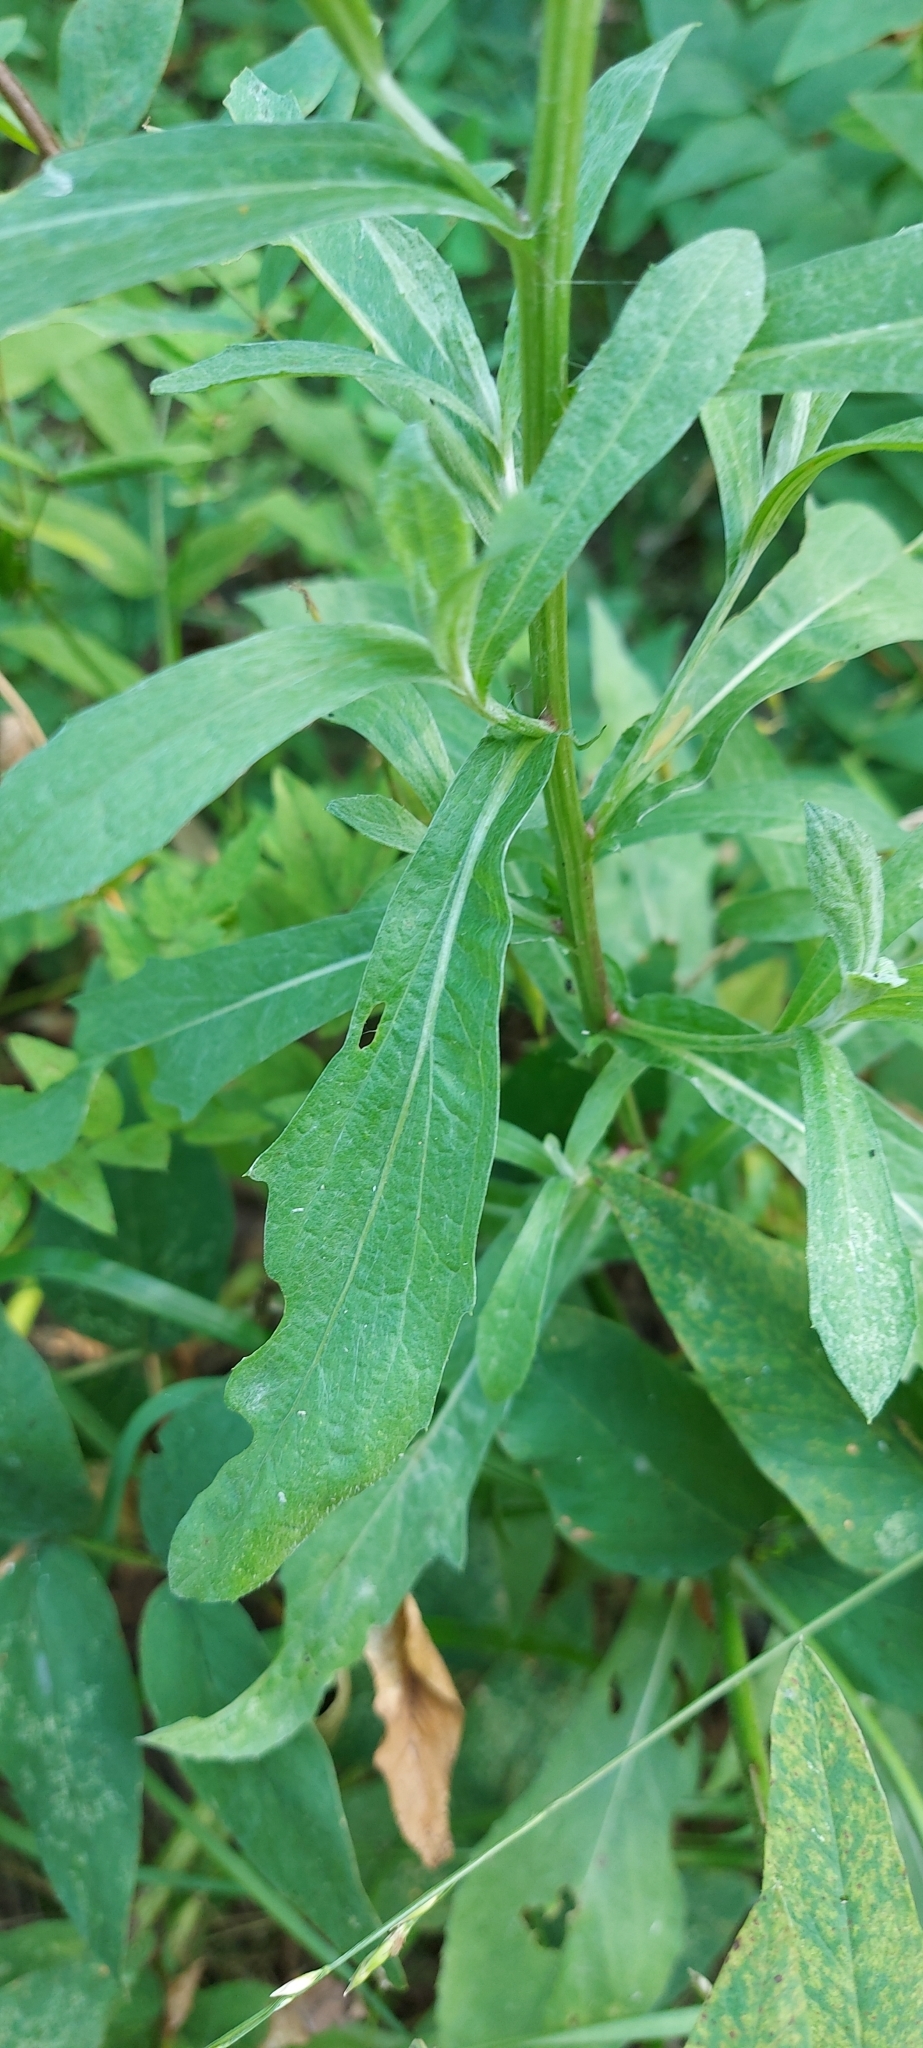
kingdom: Plantae
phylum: Tracheophyta
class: Magnoliopsida
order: Asterales
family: Asteraceae
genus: Centaurea
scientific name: Centaurea jacea
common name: Brown knapweed
